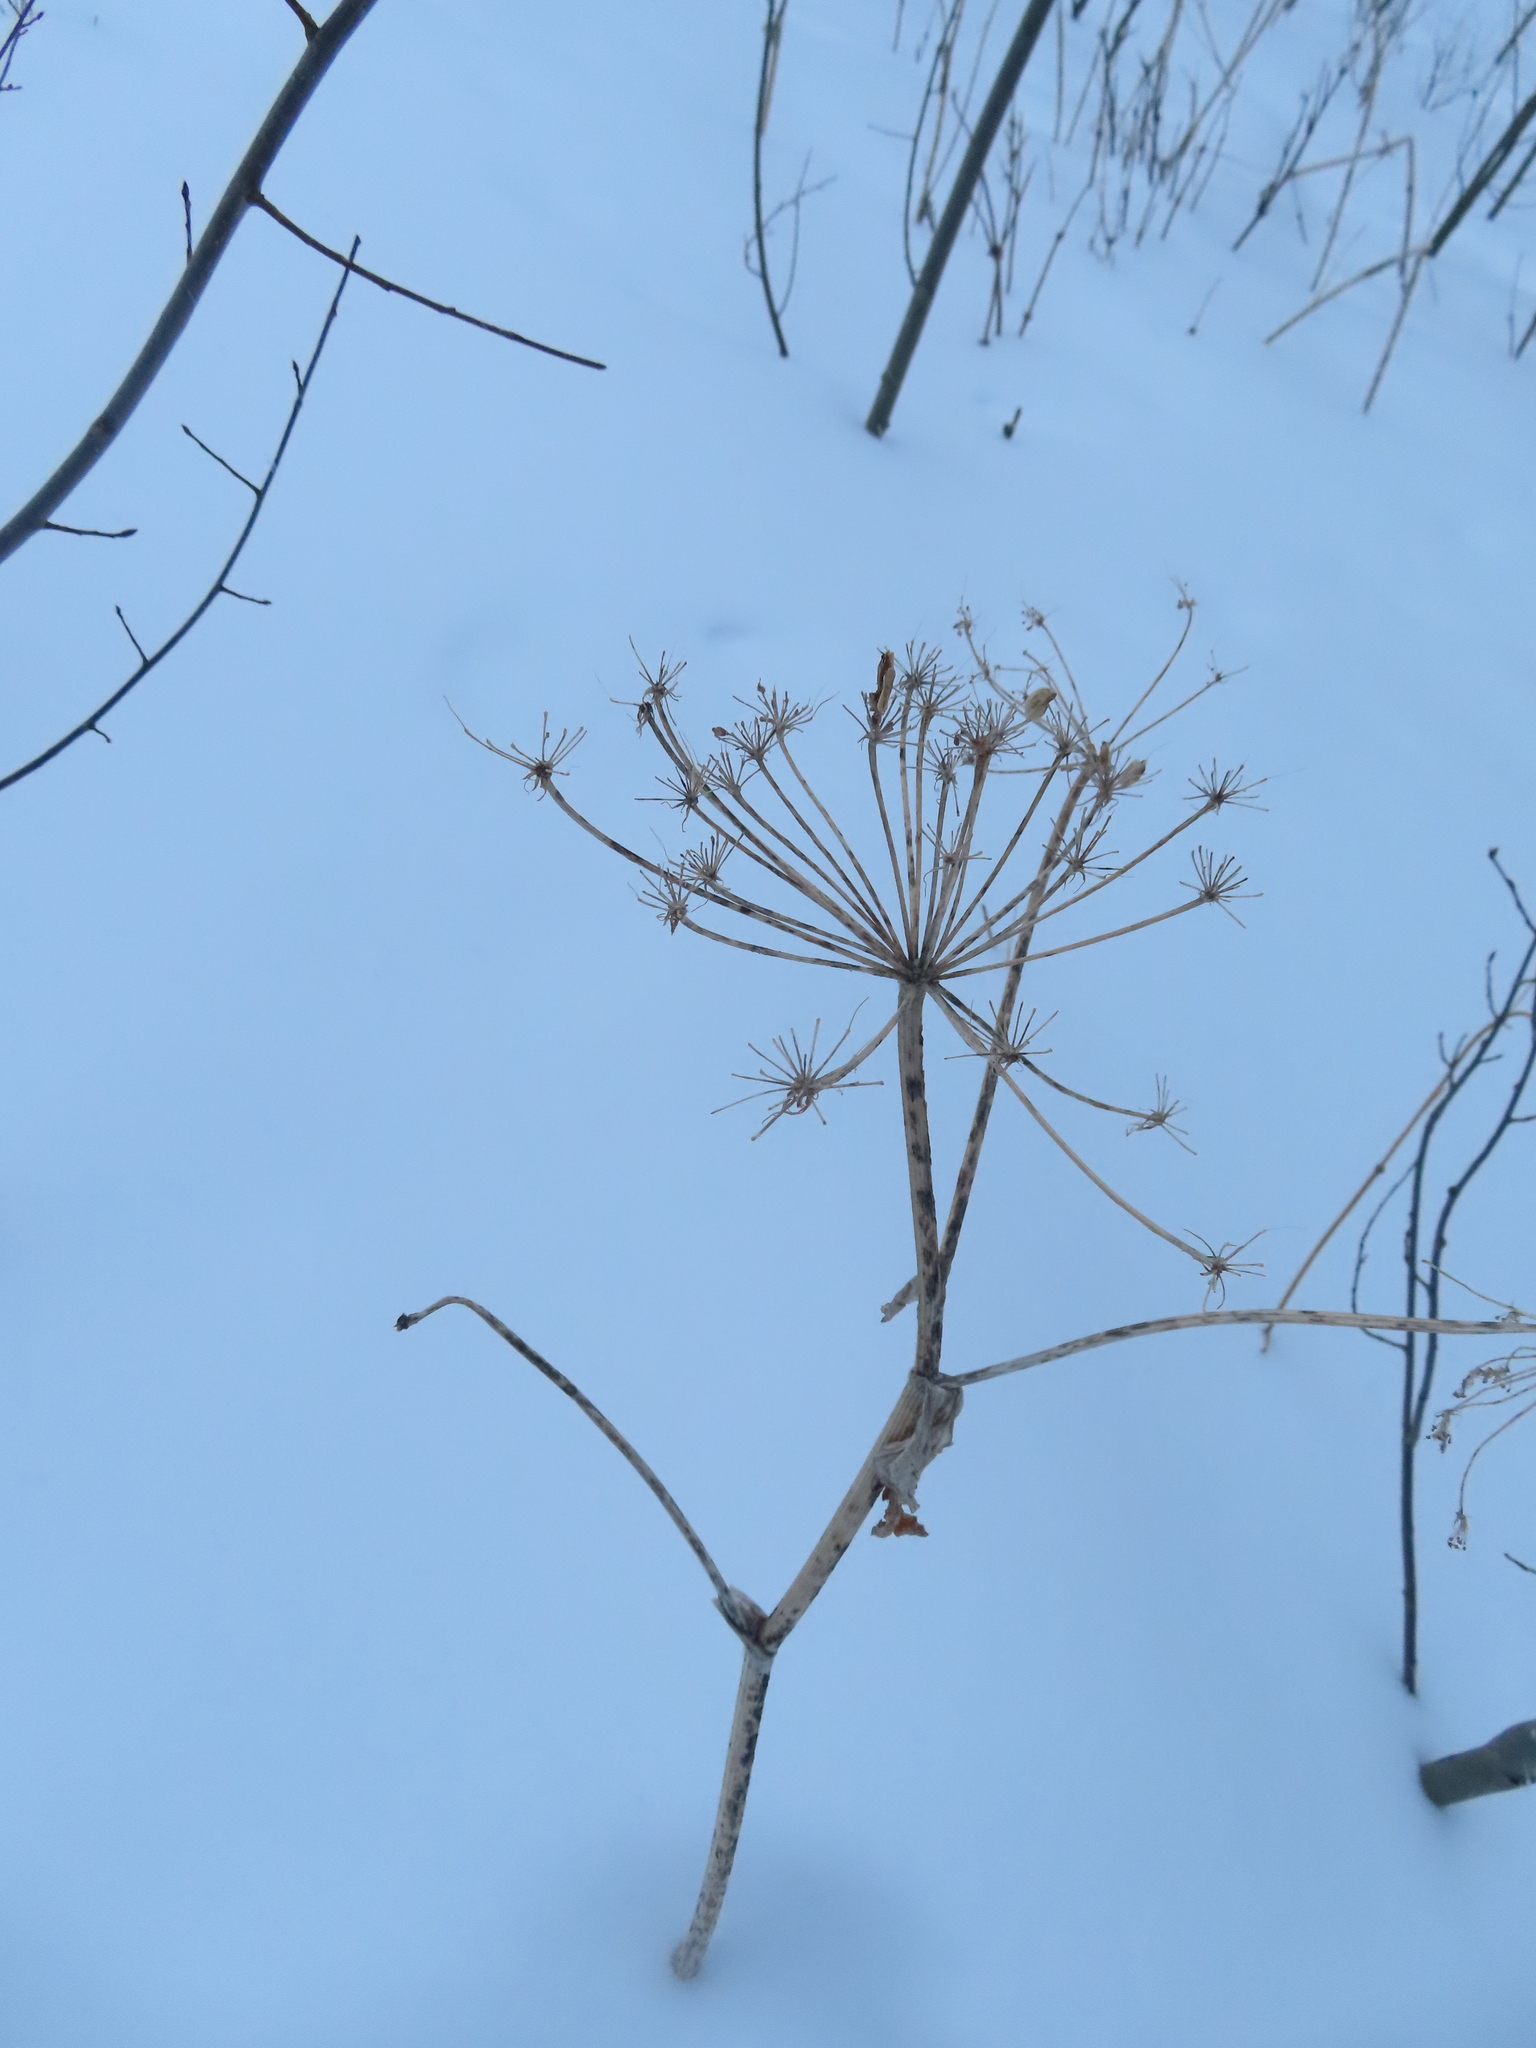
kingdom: Plantae
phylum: Tracheophyta
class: Magnoliopsida
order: Apiales
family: Apiaceae
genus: Heracleum
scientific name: Heracleum maximum
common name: American cow parsnip
